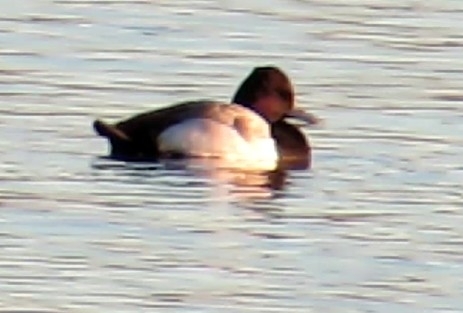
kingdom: Animalia
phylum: Chordata
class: Aves
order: Anseriformes
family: Anatidae
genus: Aythya
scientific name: Aythya affinis
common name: Lesser scaup
